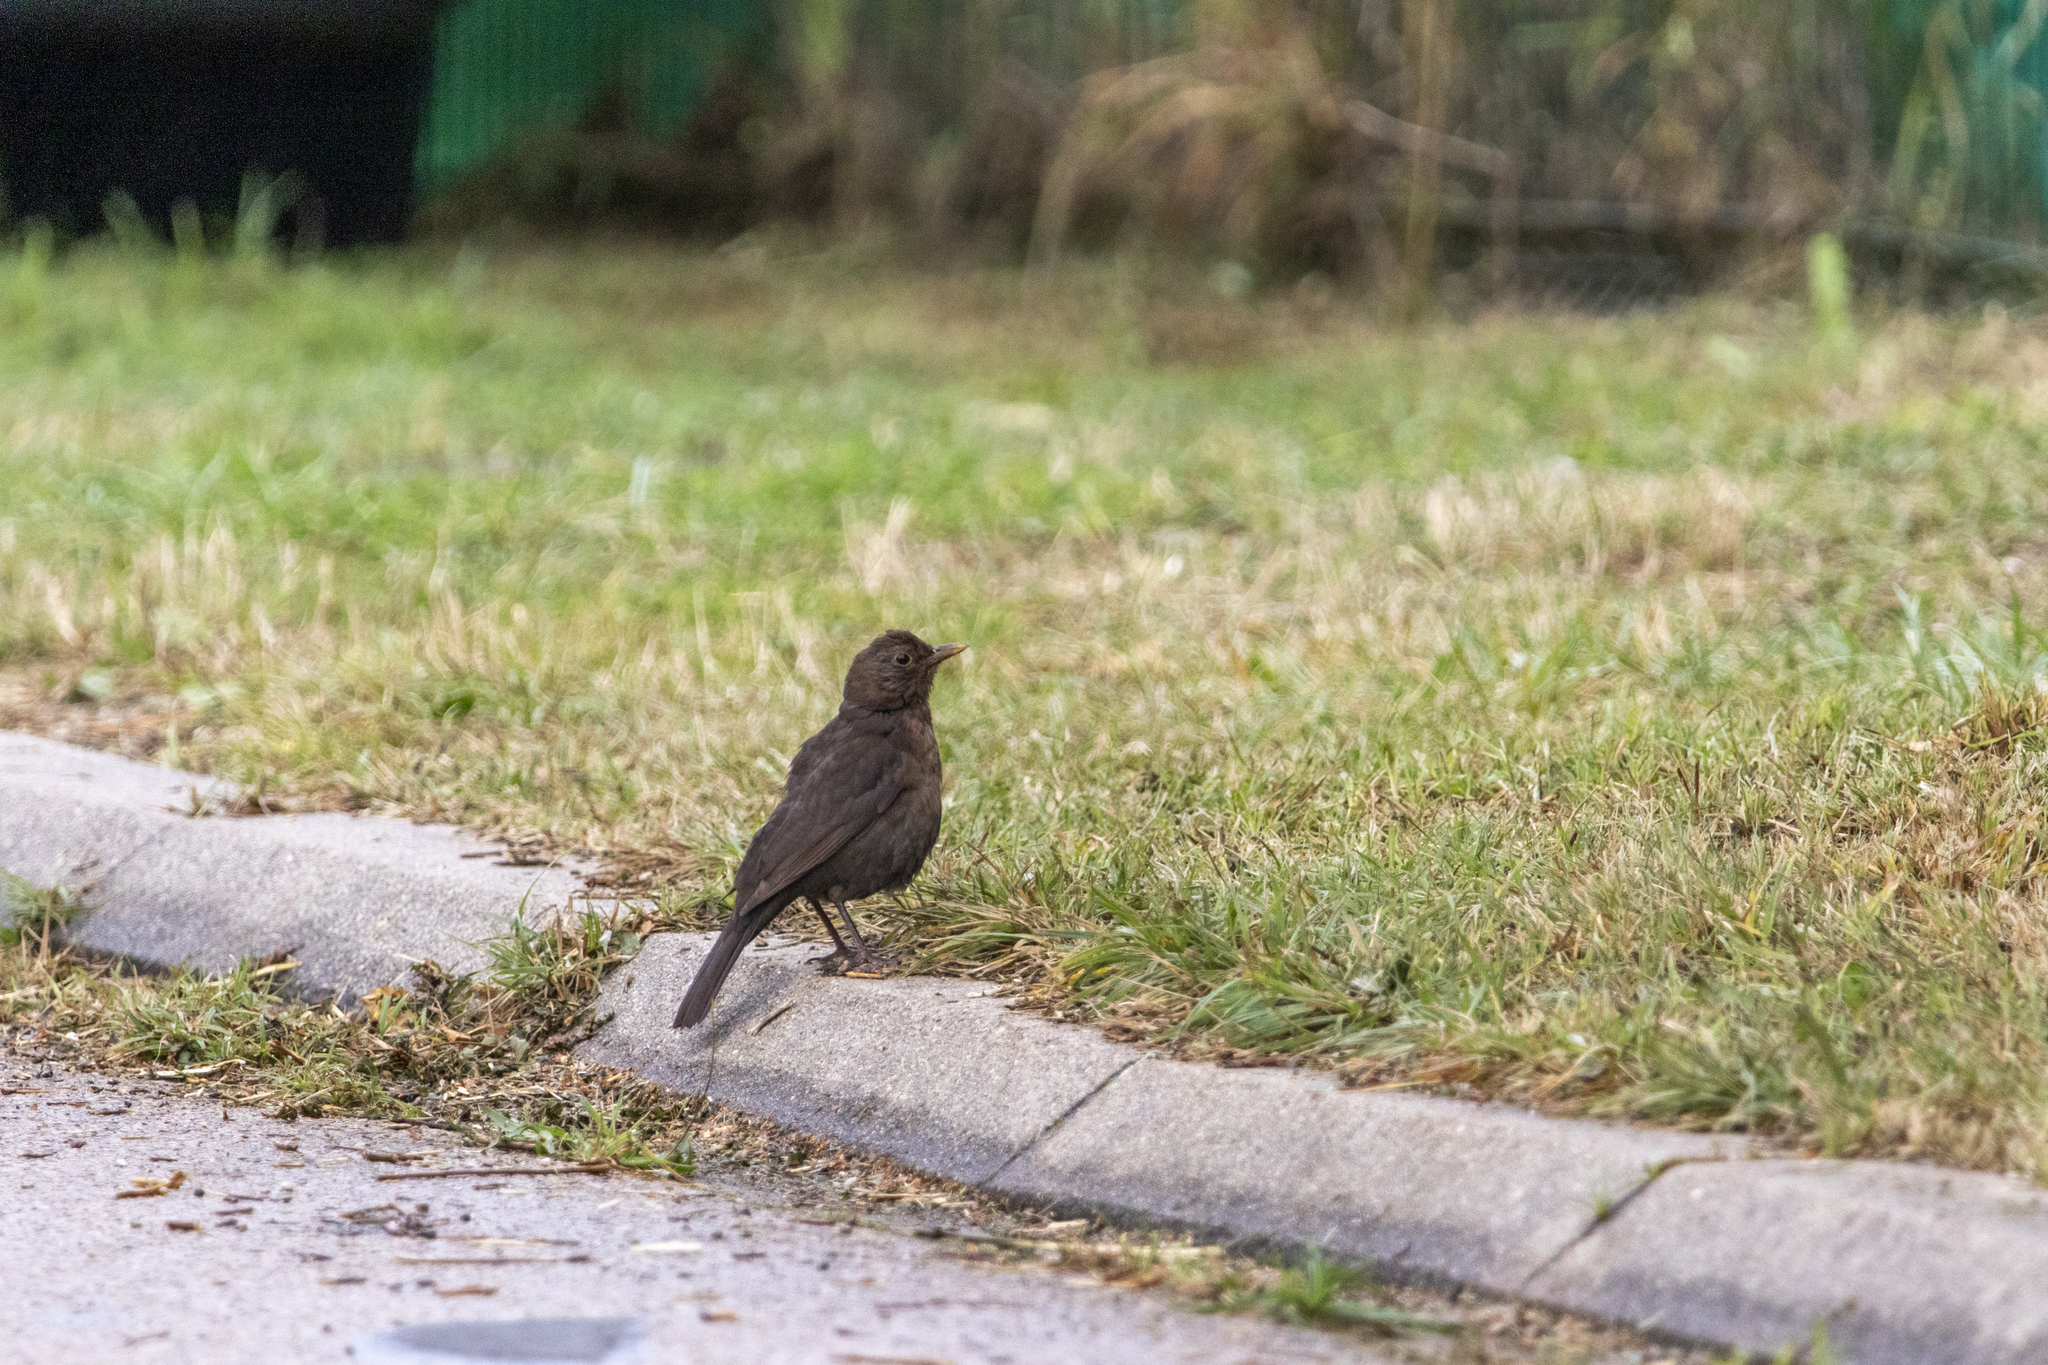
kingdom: Animalia
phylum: Chordata
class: Aves
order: Passeriformes
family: Turdidae
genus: Turdus
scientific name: Turdus merula
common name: Common blackbird
